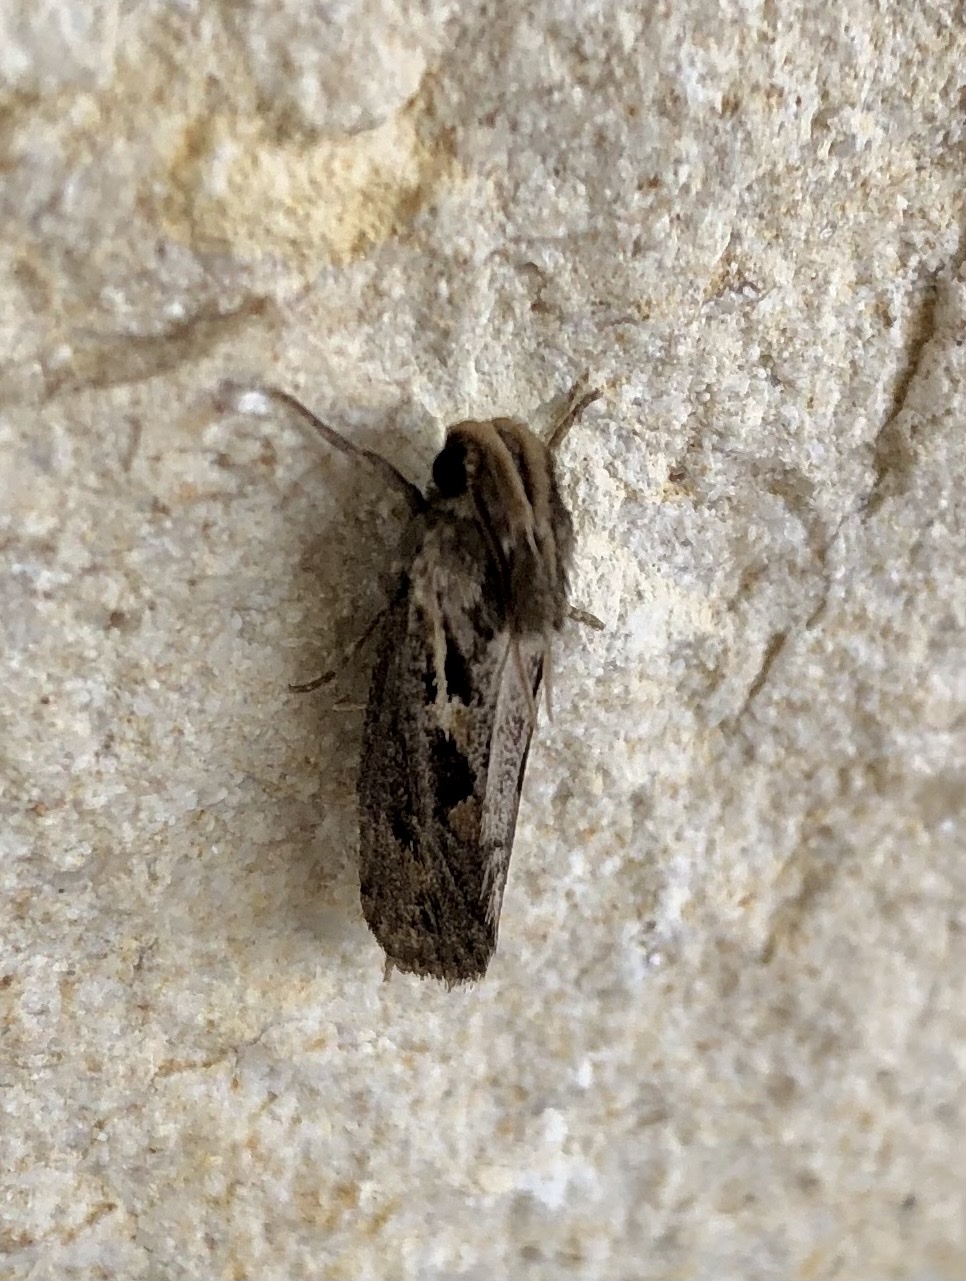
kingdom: Animalia
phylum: Arthropoda
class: Insecta
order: Lepidoptera
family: Tineidae
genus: Acrolophus
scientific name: Acrolophus popeanella
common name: Clemens' grass tubeworm moth
